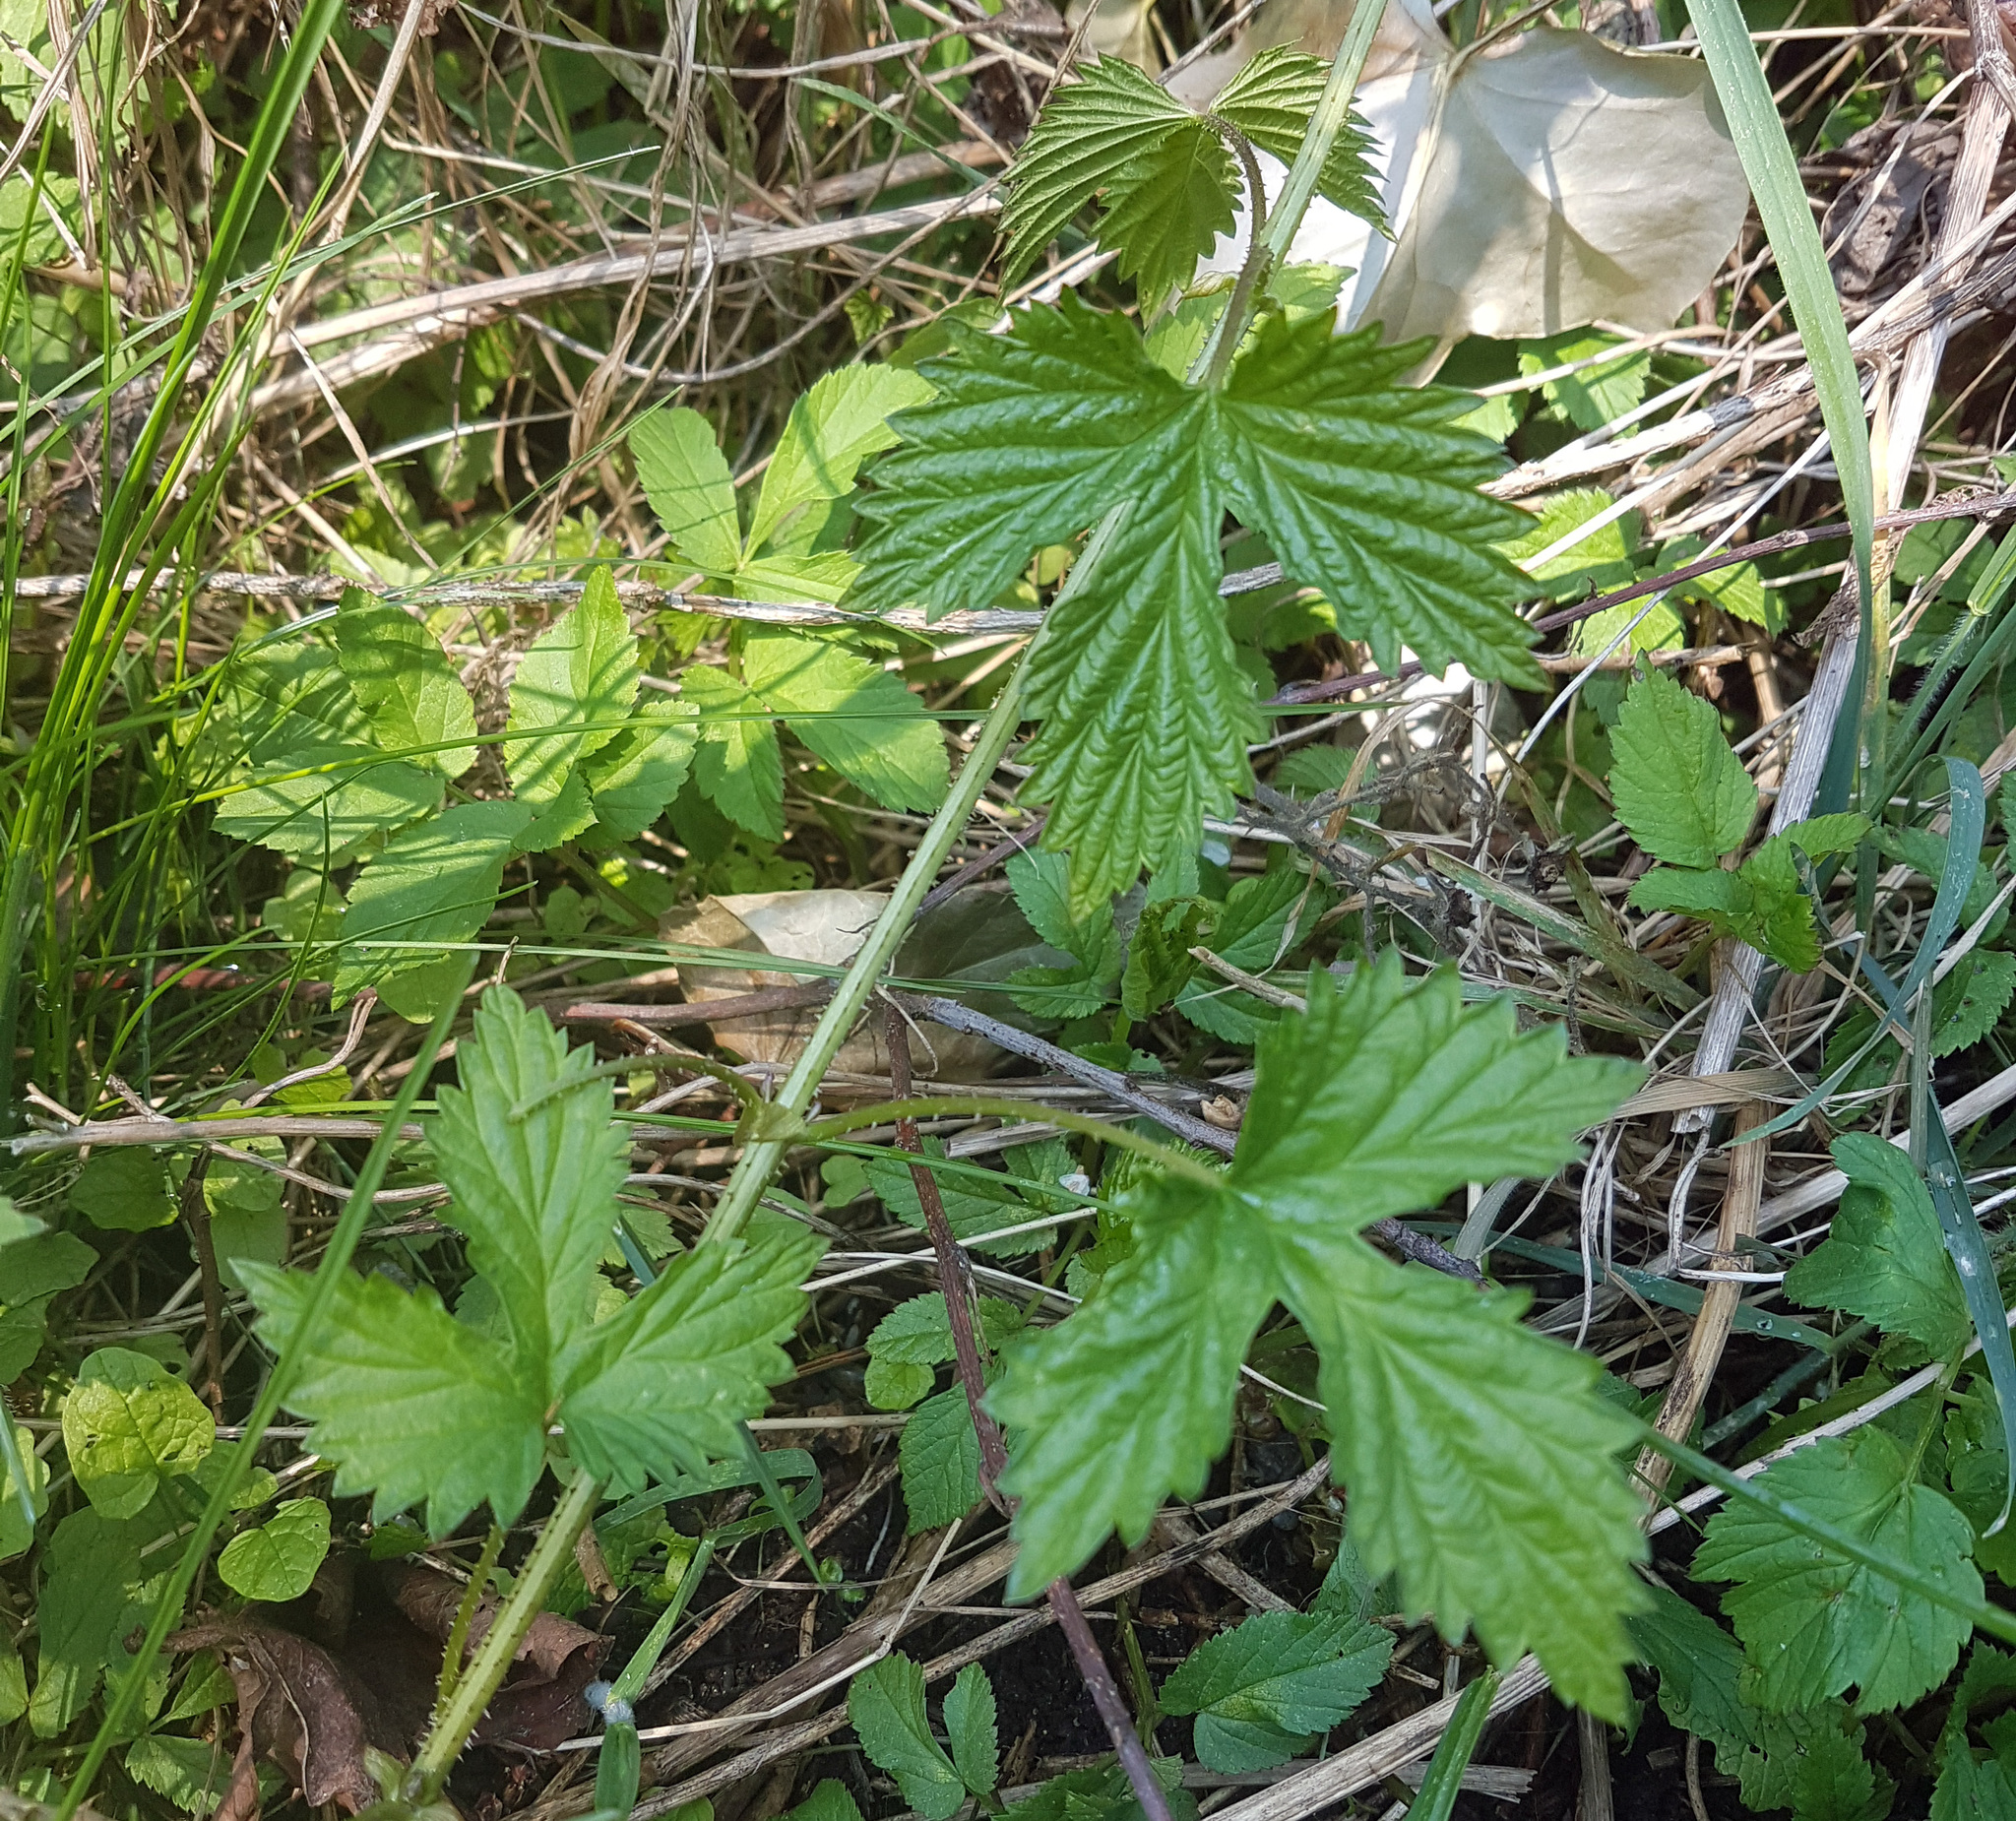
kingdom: Plantae
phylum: Tracheophyta
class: Magnoliopsida
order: Rosales
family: Cannabaceae
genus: Humulus
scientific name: Humulus lupulus
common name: Hop
